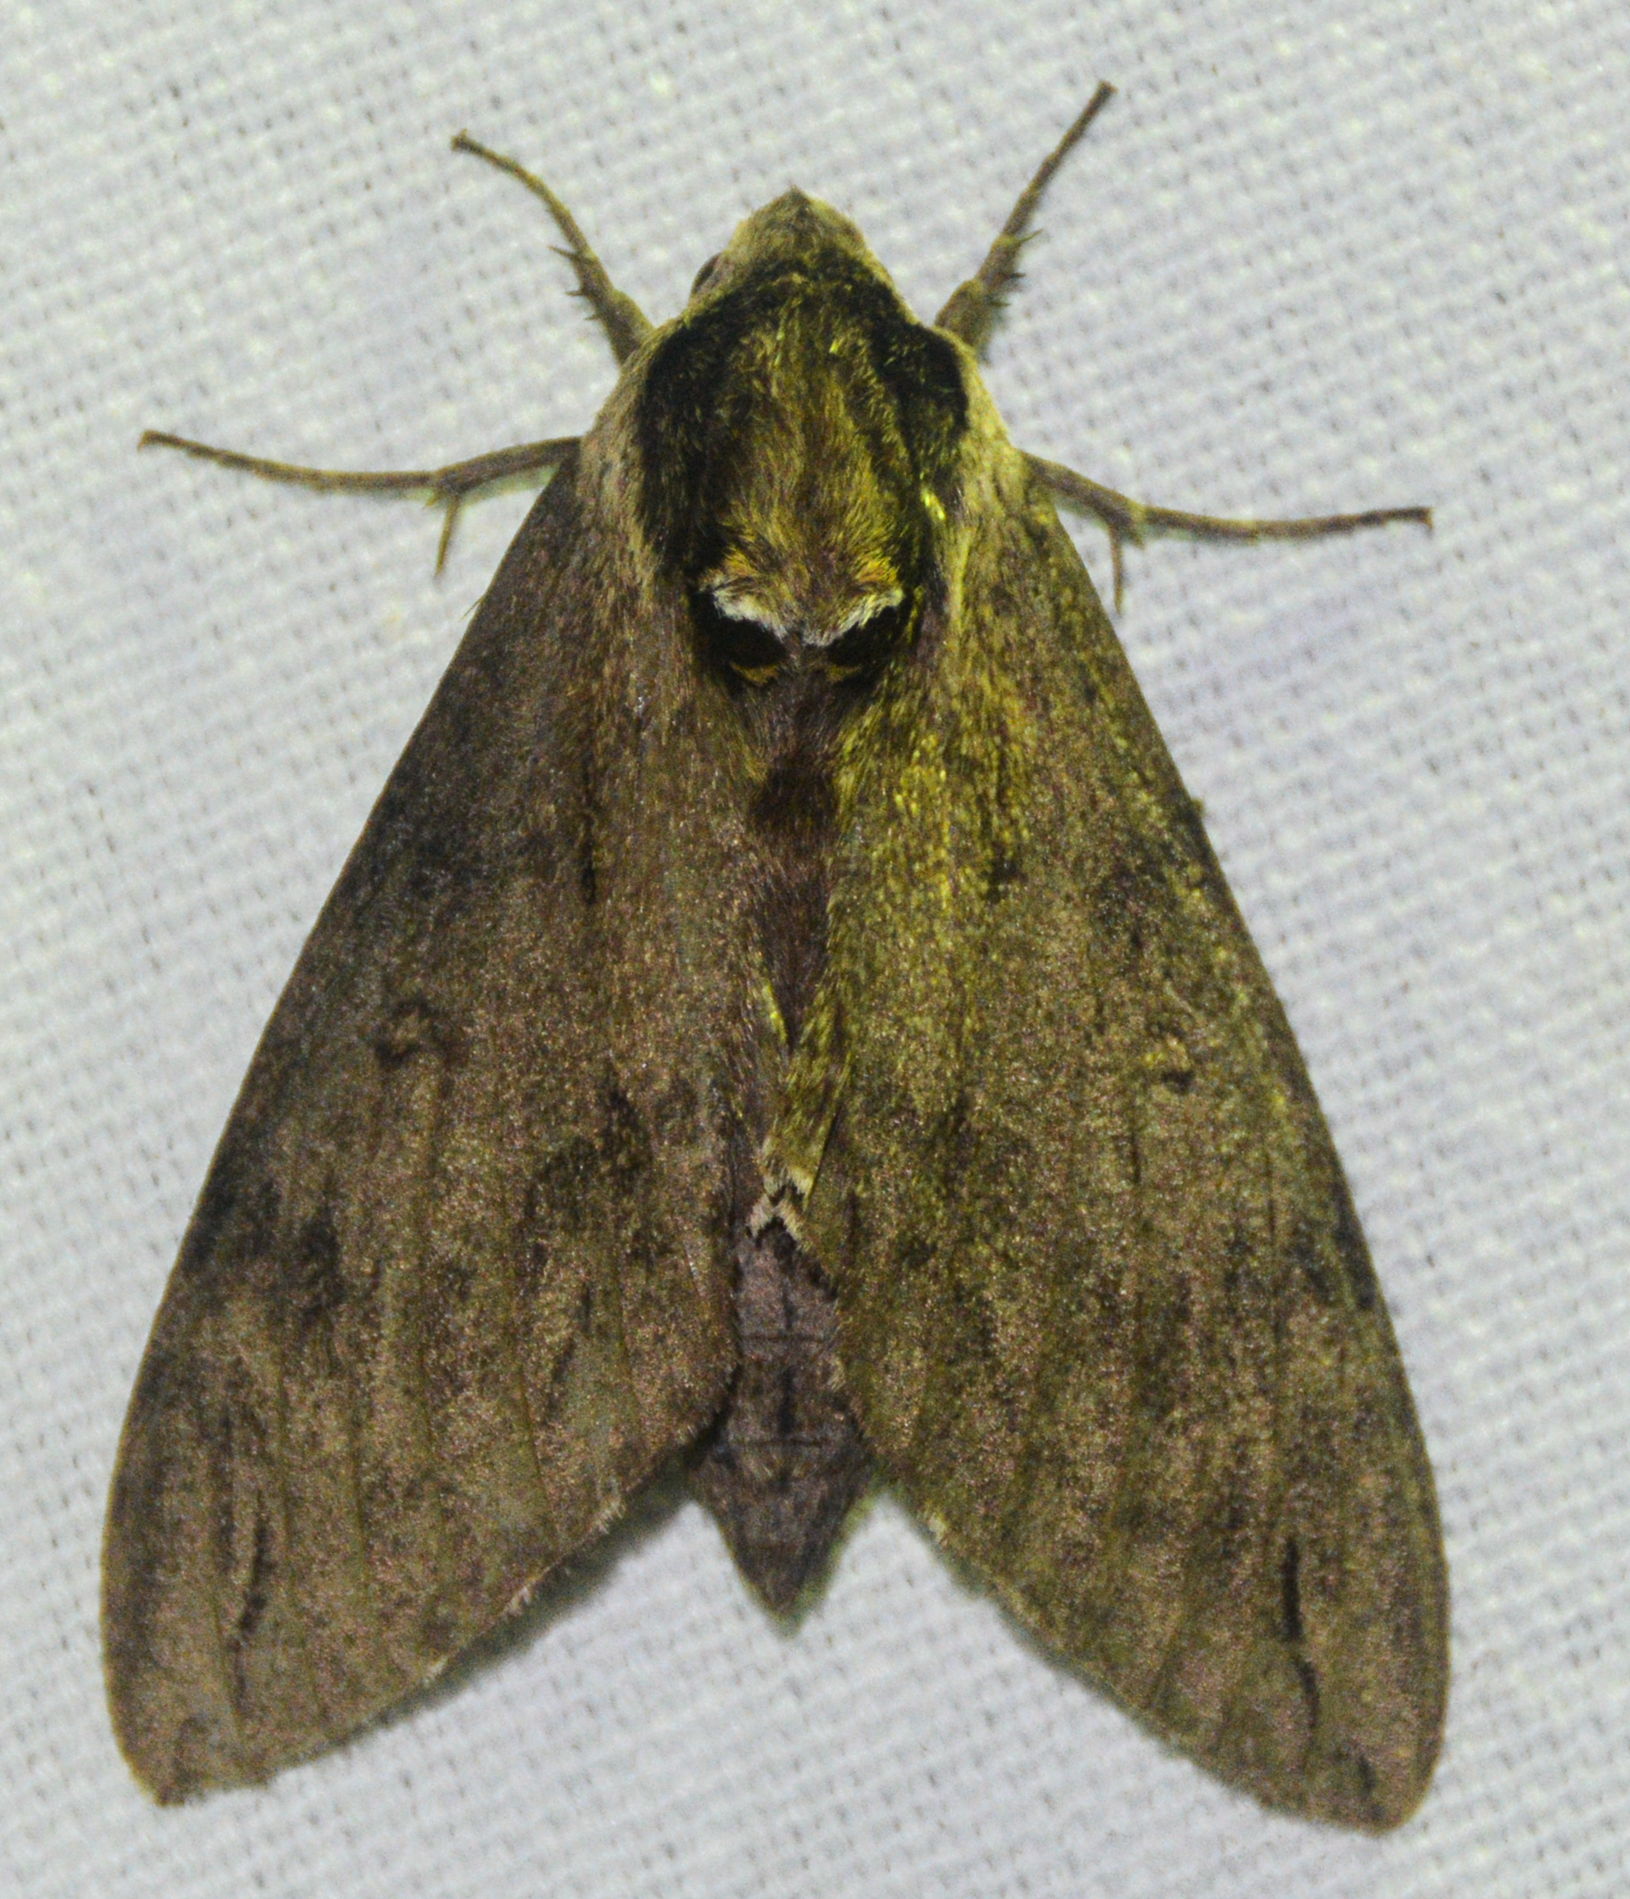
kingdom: Animalia
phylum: Arthropoda
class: Insecta
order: Lepidoptera
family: Sphingidae
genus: Ceratomia
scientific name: Ceratomia catalpae
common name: Catalpa hornworm
